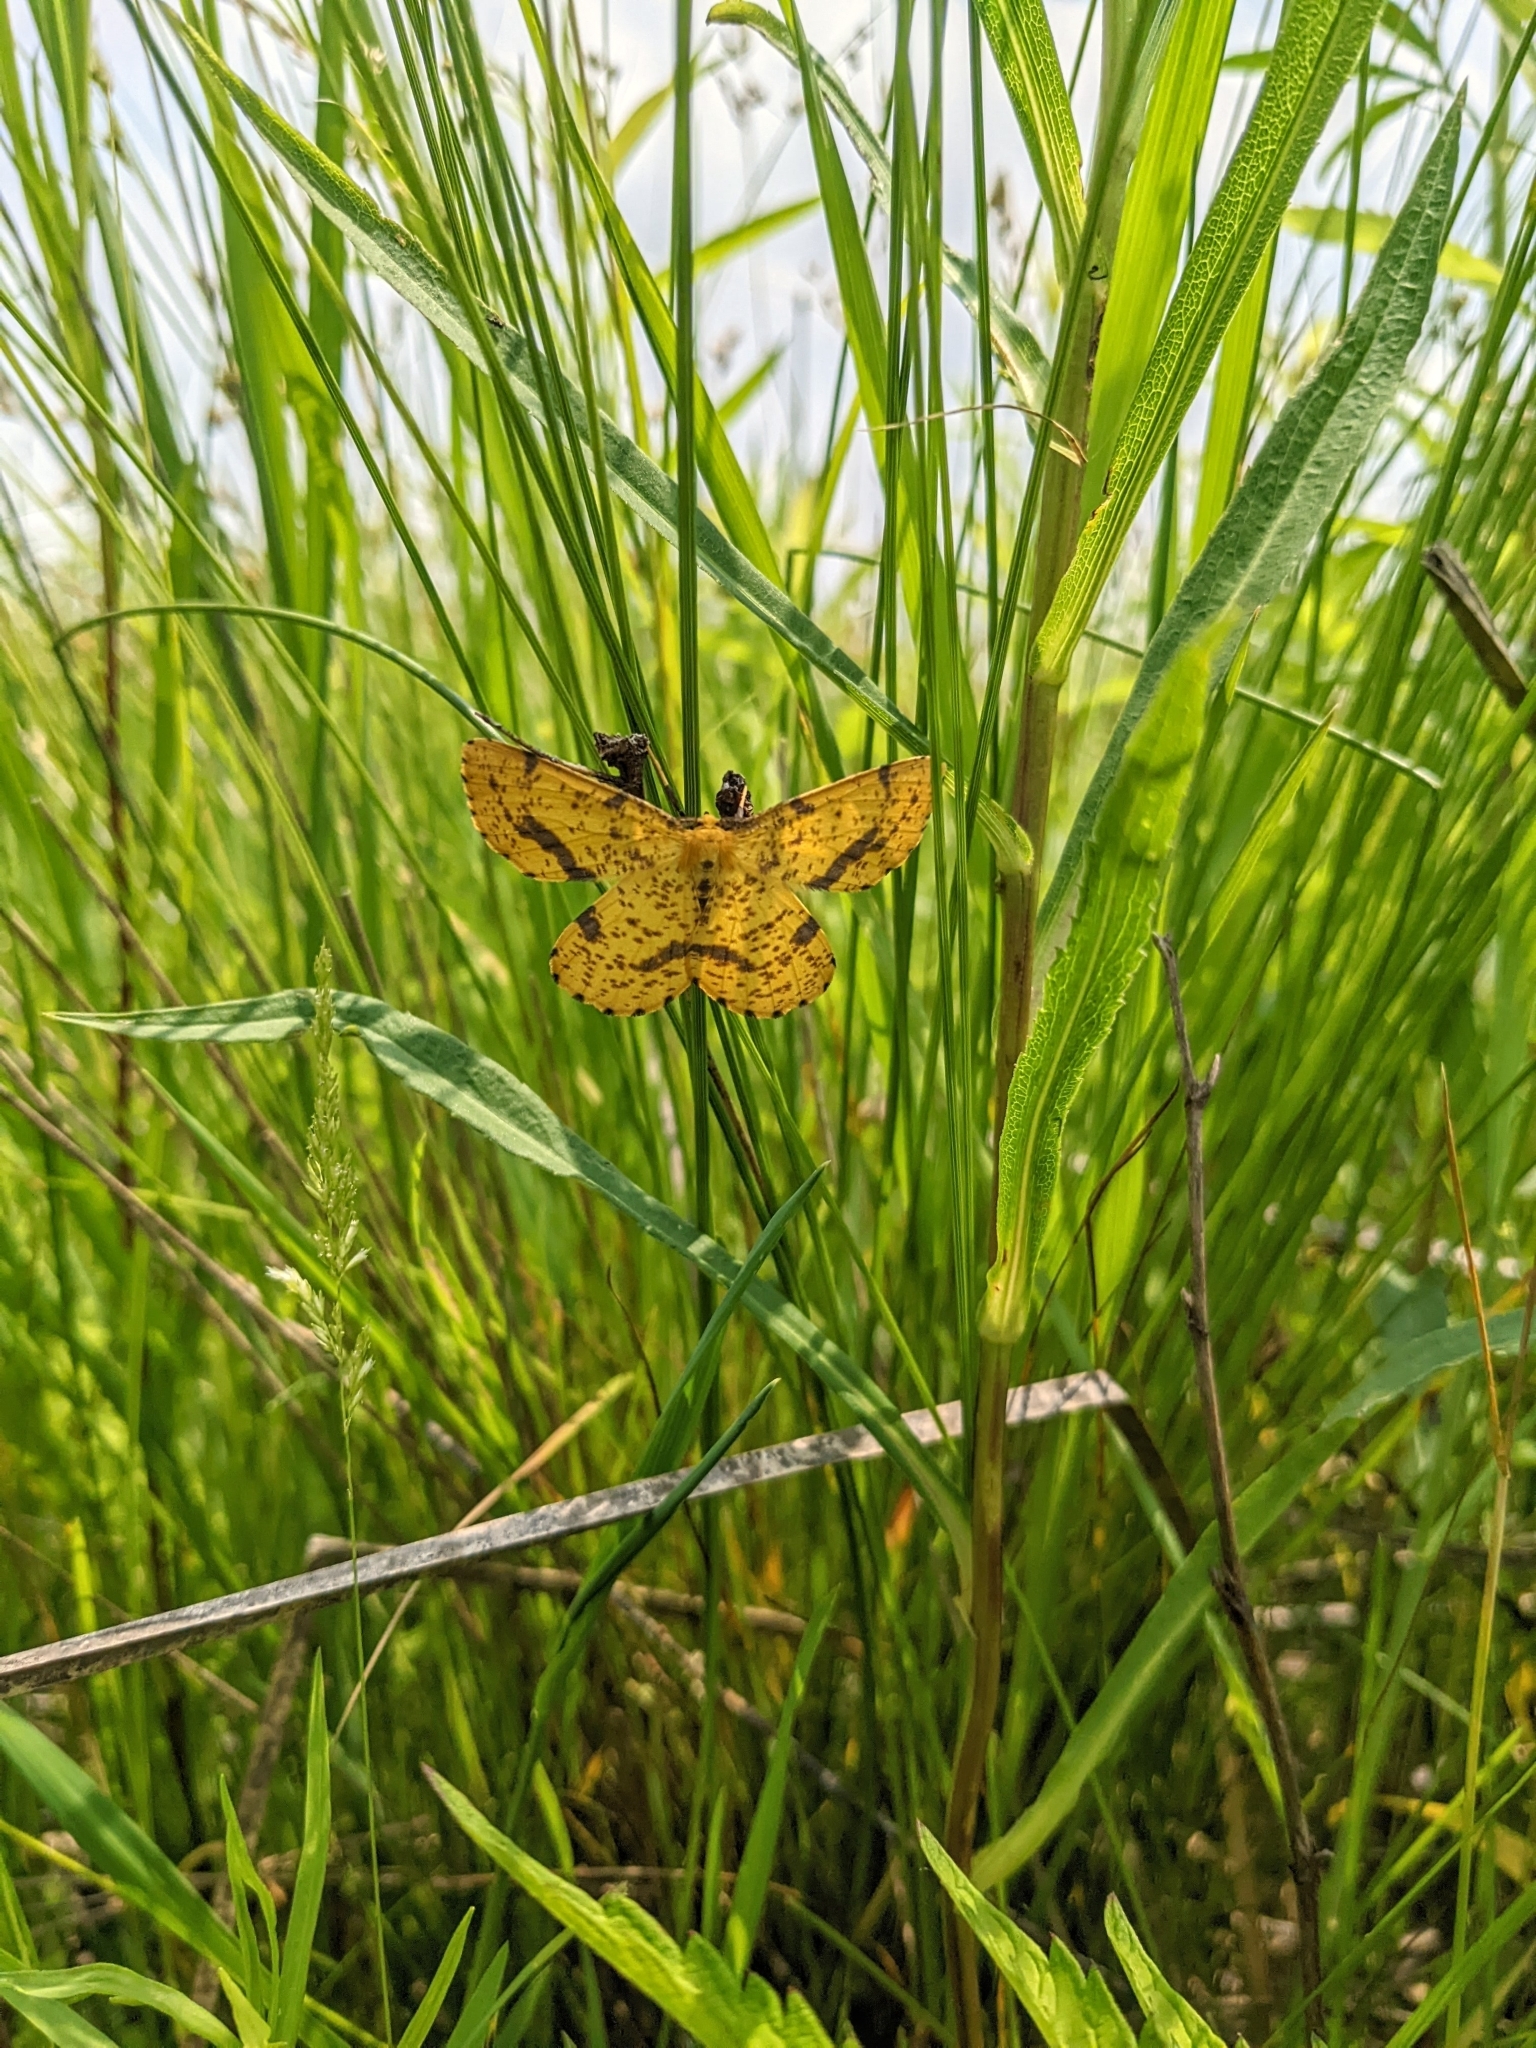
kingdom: Animalia
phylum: Arthropoda
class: Insecta
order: Lepidoptera
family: Geometridae
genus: Xanthotype
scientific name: Xanthotype
